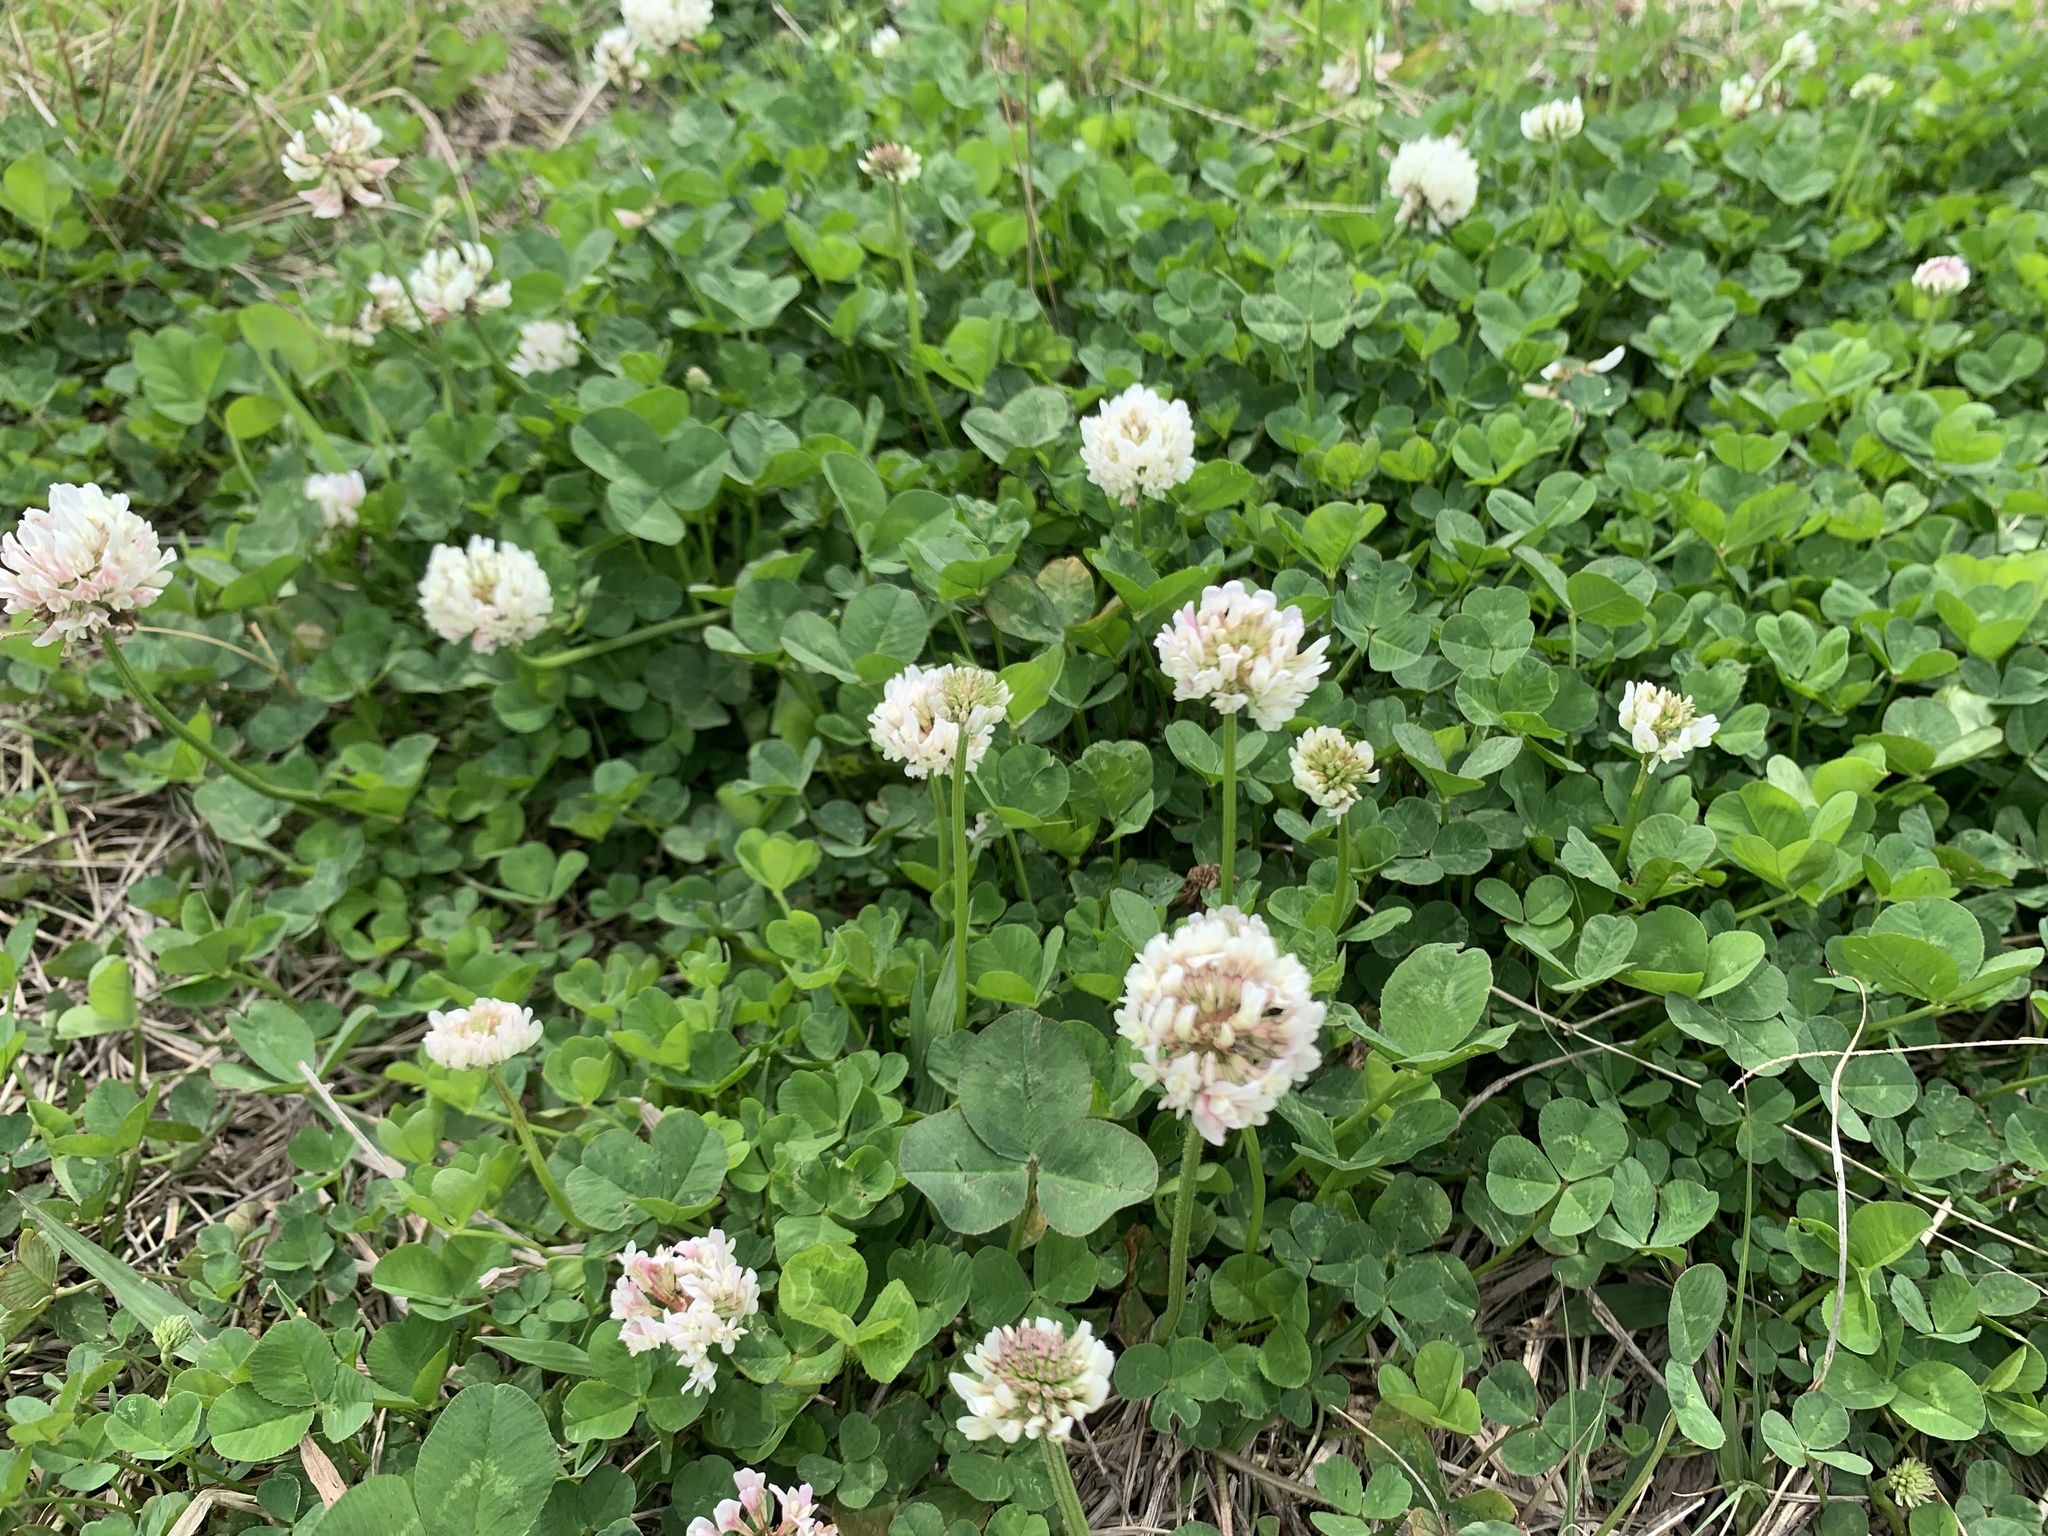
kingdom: Plantae
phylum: Tracheophyta
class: Magnoliopsida
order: Fabales
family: Fabaceae
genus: Trifolium
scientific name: Trifolium repens
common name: White clover
